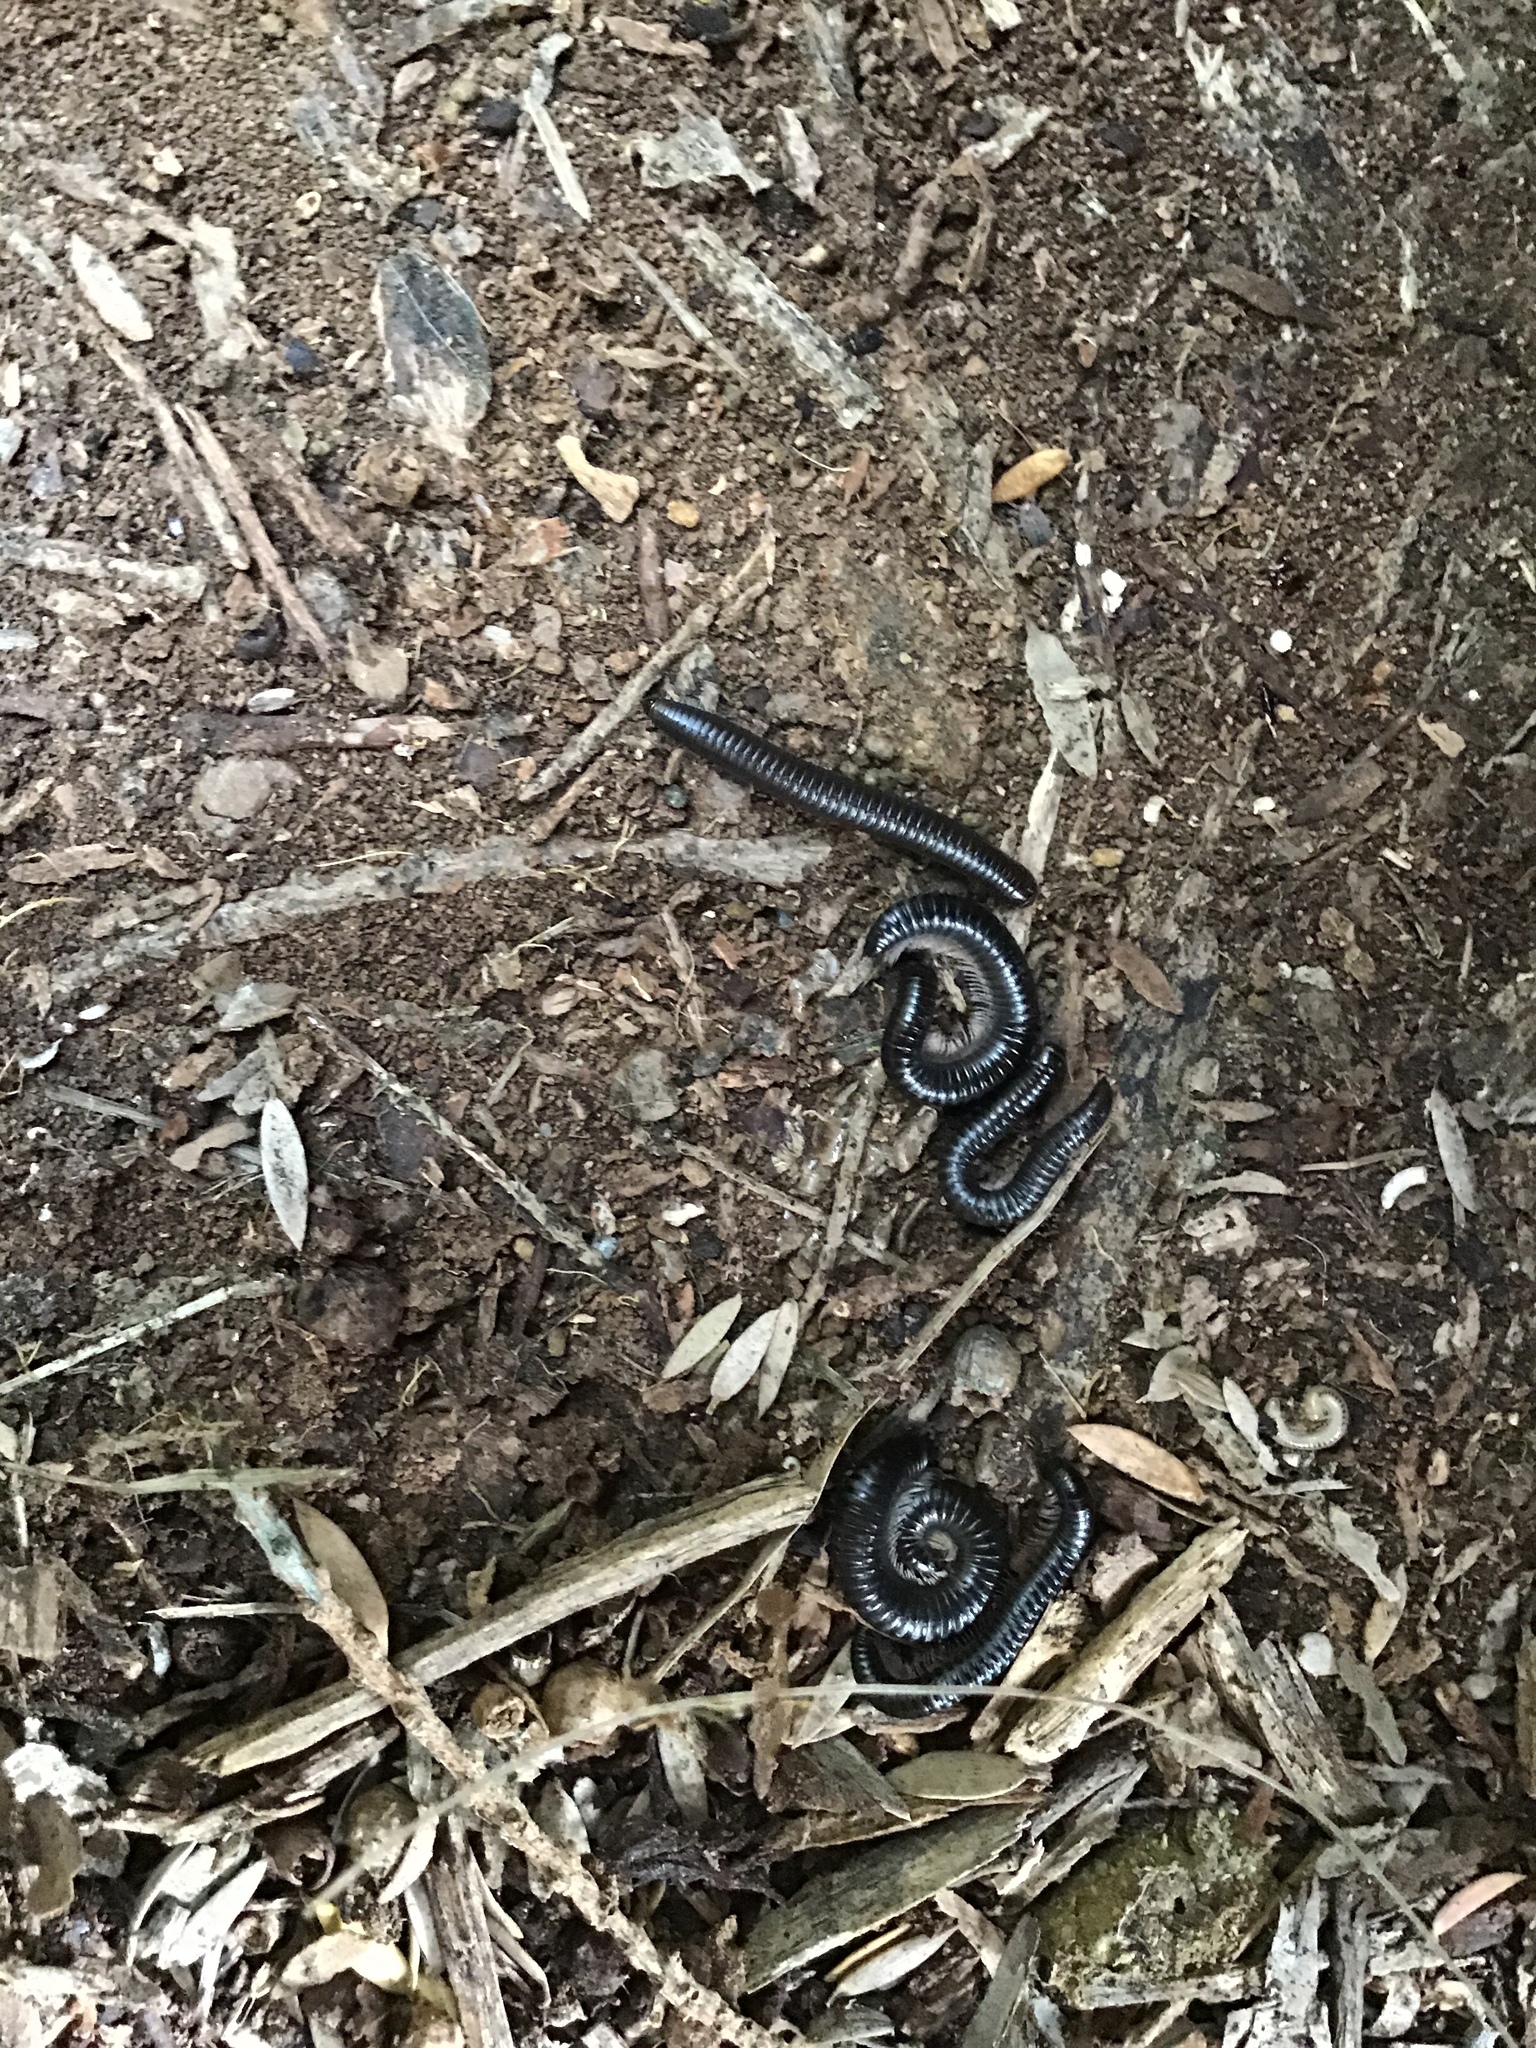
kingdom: Animalia
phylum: Arthropoda
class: Diplopoda
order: Julida
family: Julidae
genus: Ommatoiulus
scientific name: Ommatoiulus moreleti
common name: Portuguese millipede
